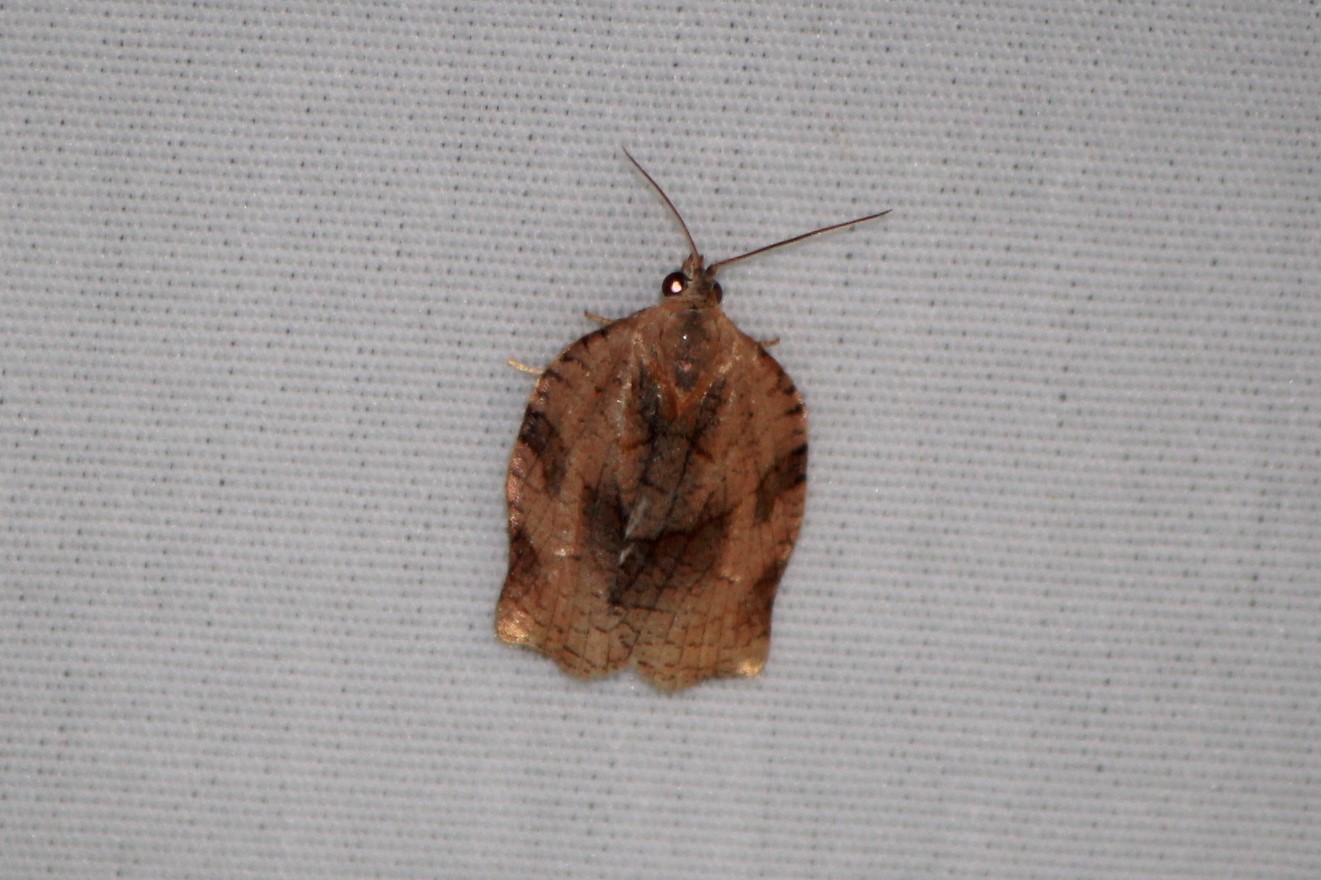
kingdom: Animalia
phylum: Arthropoda
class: Insecta
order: Lepidoptera
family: Tortricidae
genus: Archips
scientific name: Archips purpurana
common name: Omnivorous leafroller
